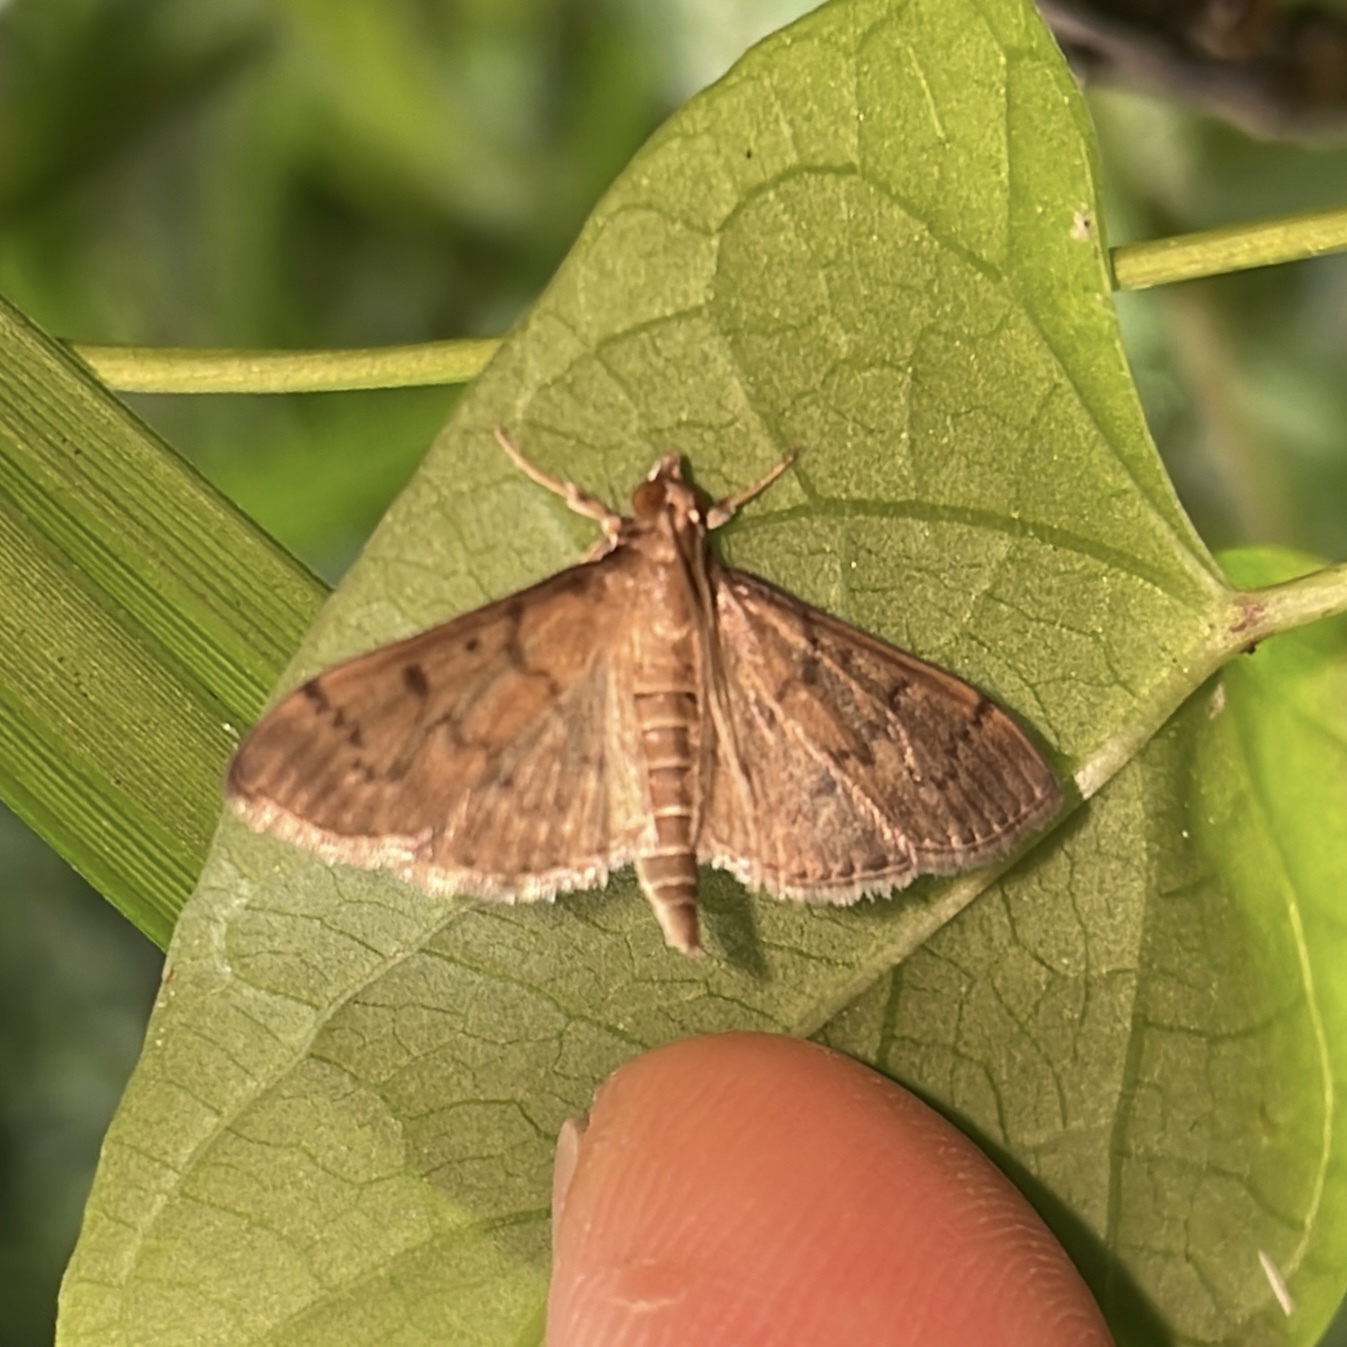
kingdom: Animalia
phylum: Arthropoda
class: Insecta
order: Lepidoptera
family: Crambidae
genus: Herpetogramma
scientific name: Herpetogramma phaeopteralis
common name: Dusky herpetogramma moth
